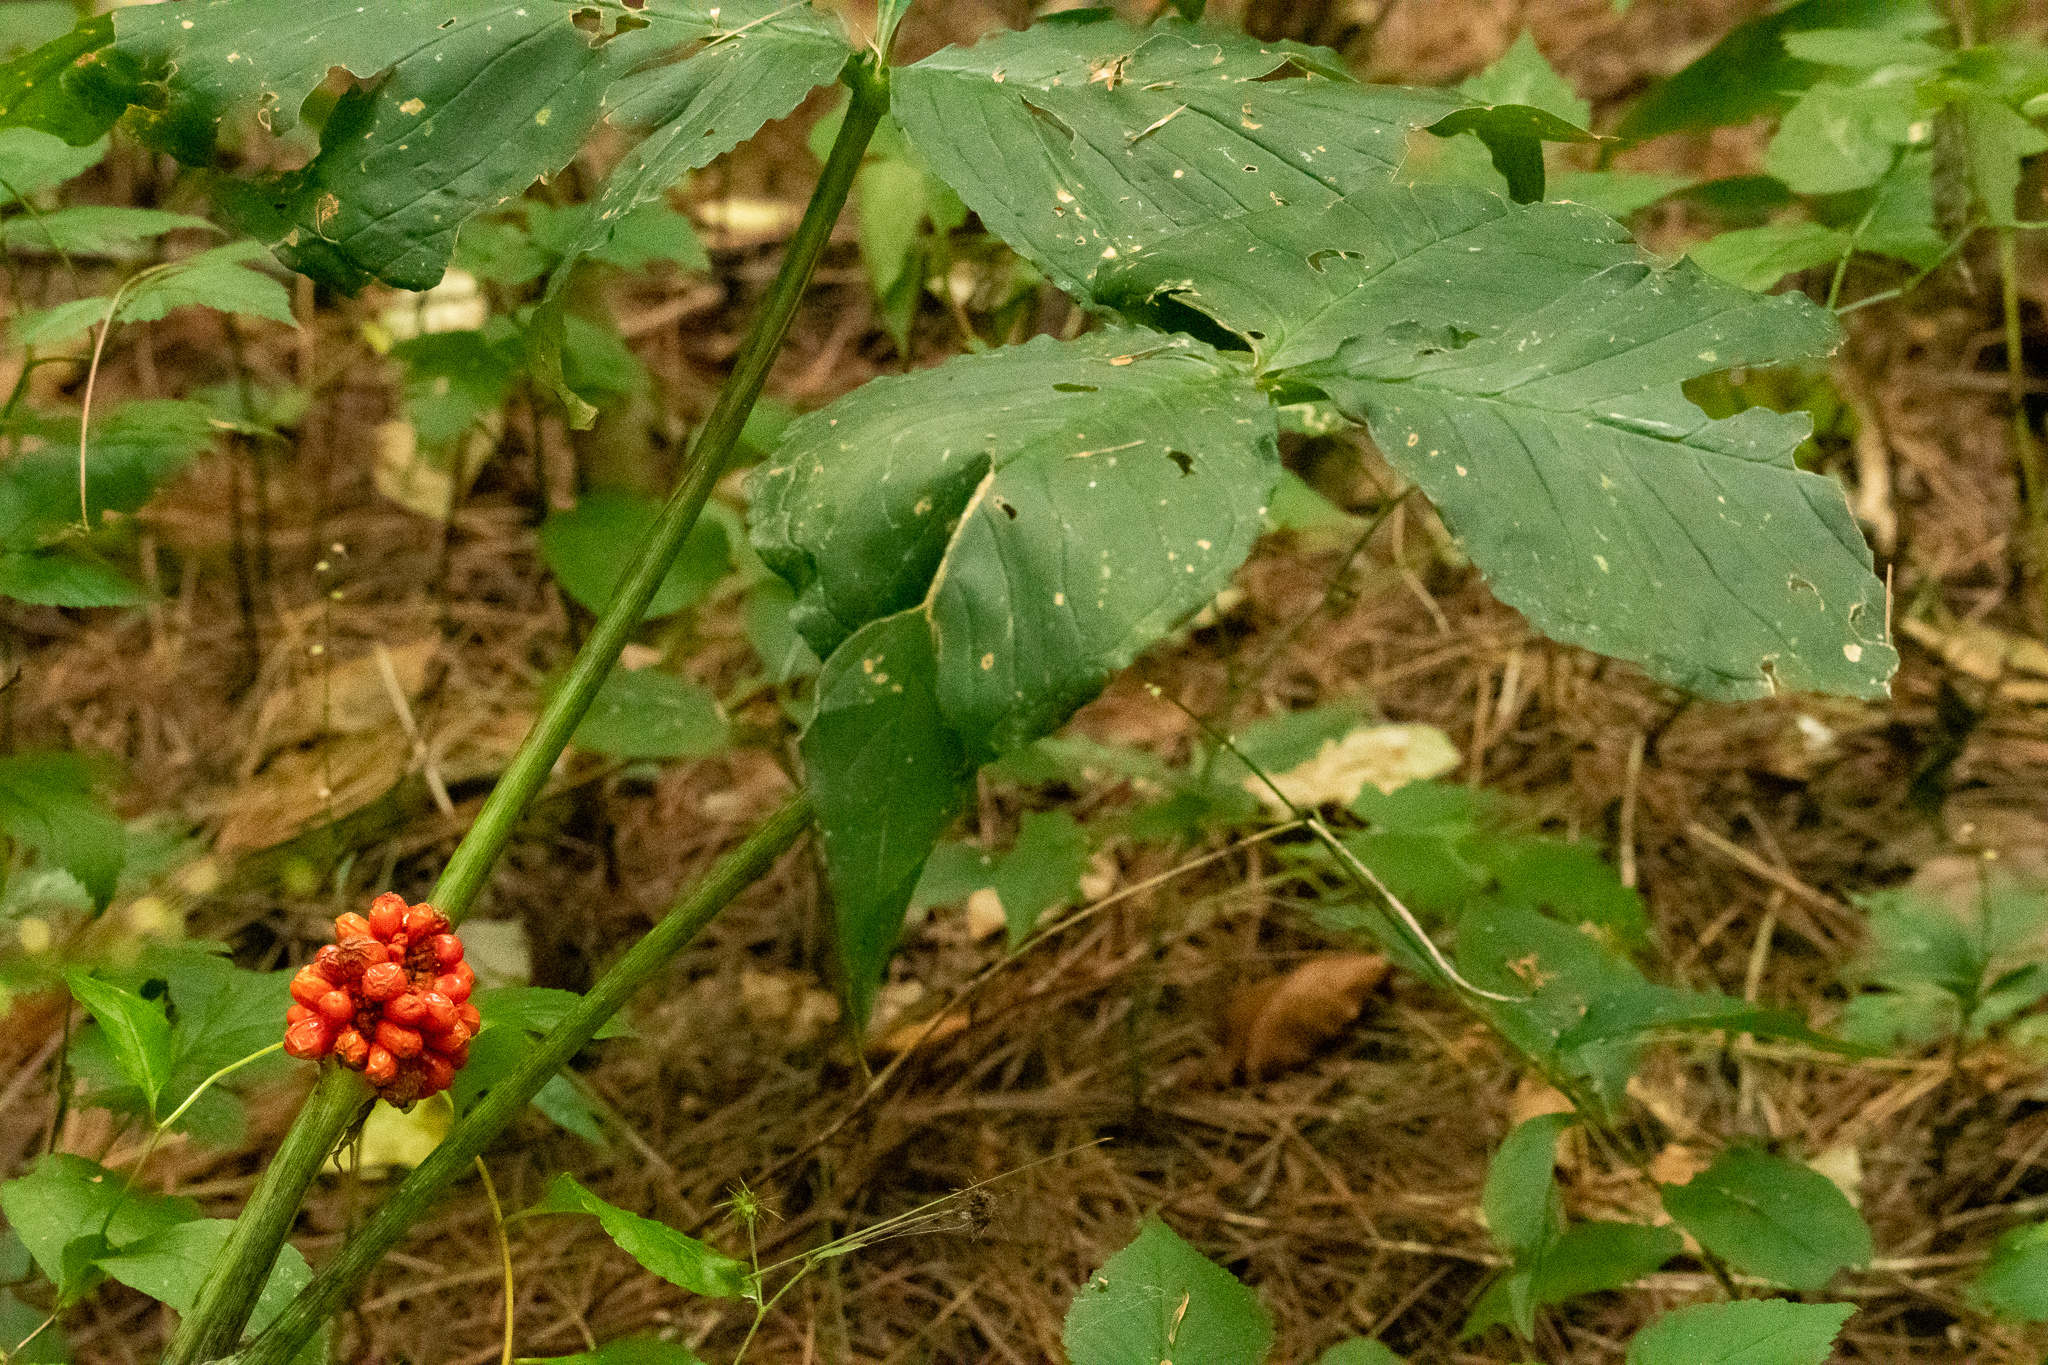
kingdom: Plantae
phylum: Tracheophyta
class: Liliopsida
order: Alismatales
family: Araceae
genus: Arisaema
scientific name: Arisaema triphyllum
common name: Jack-in-the-pulpit
